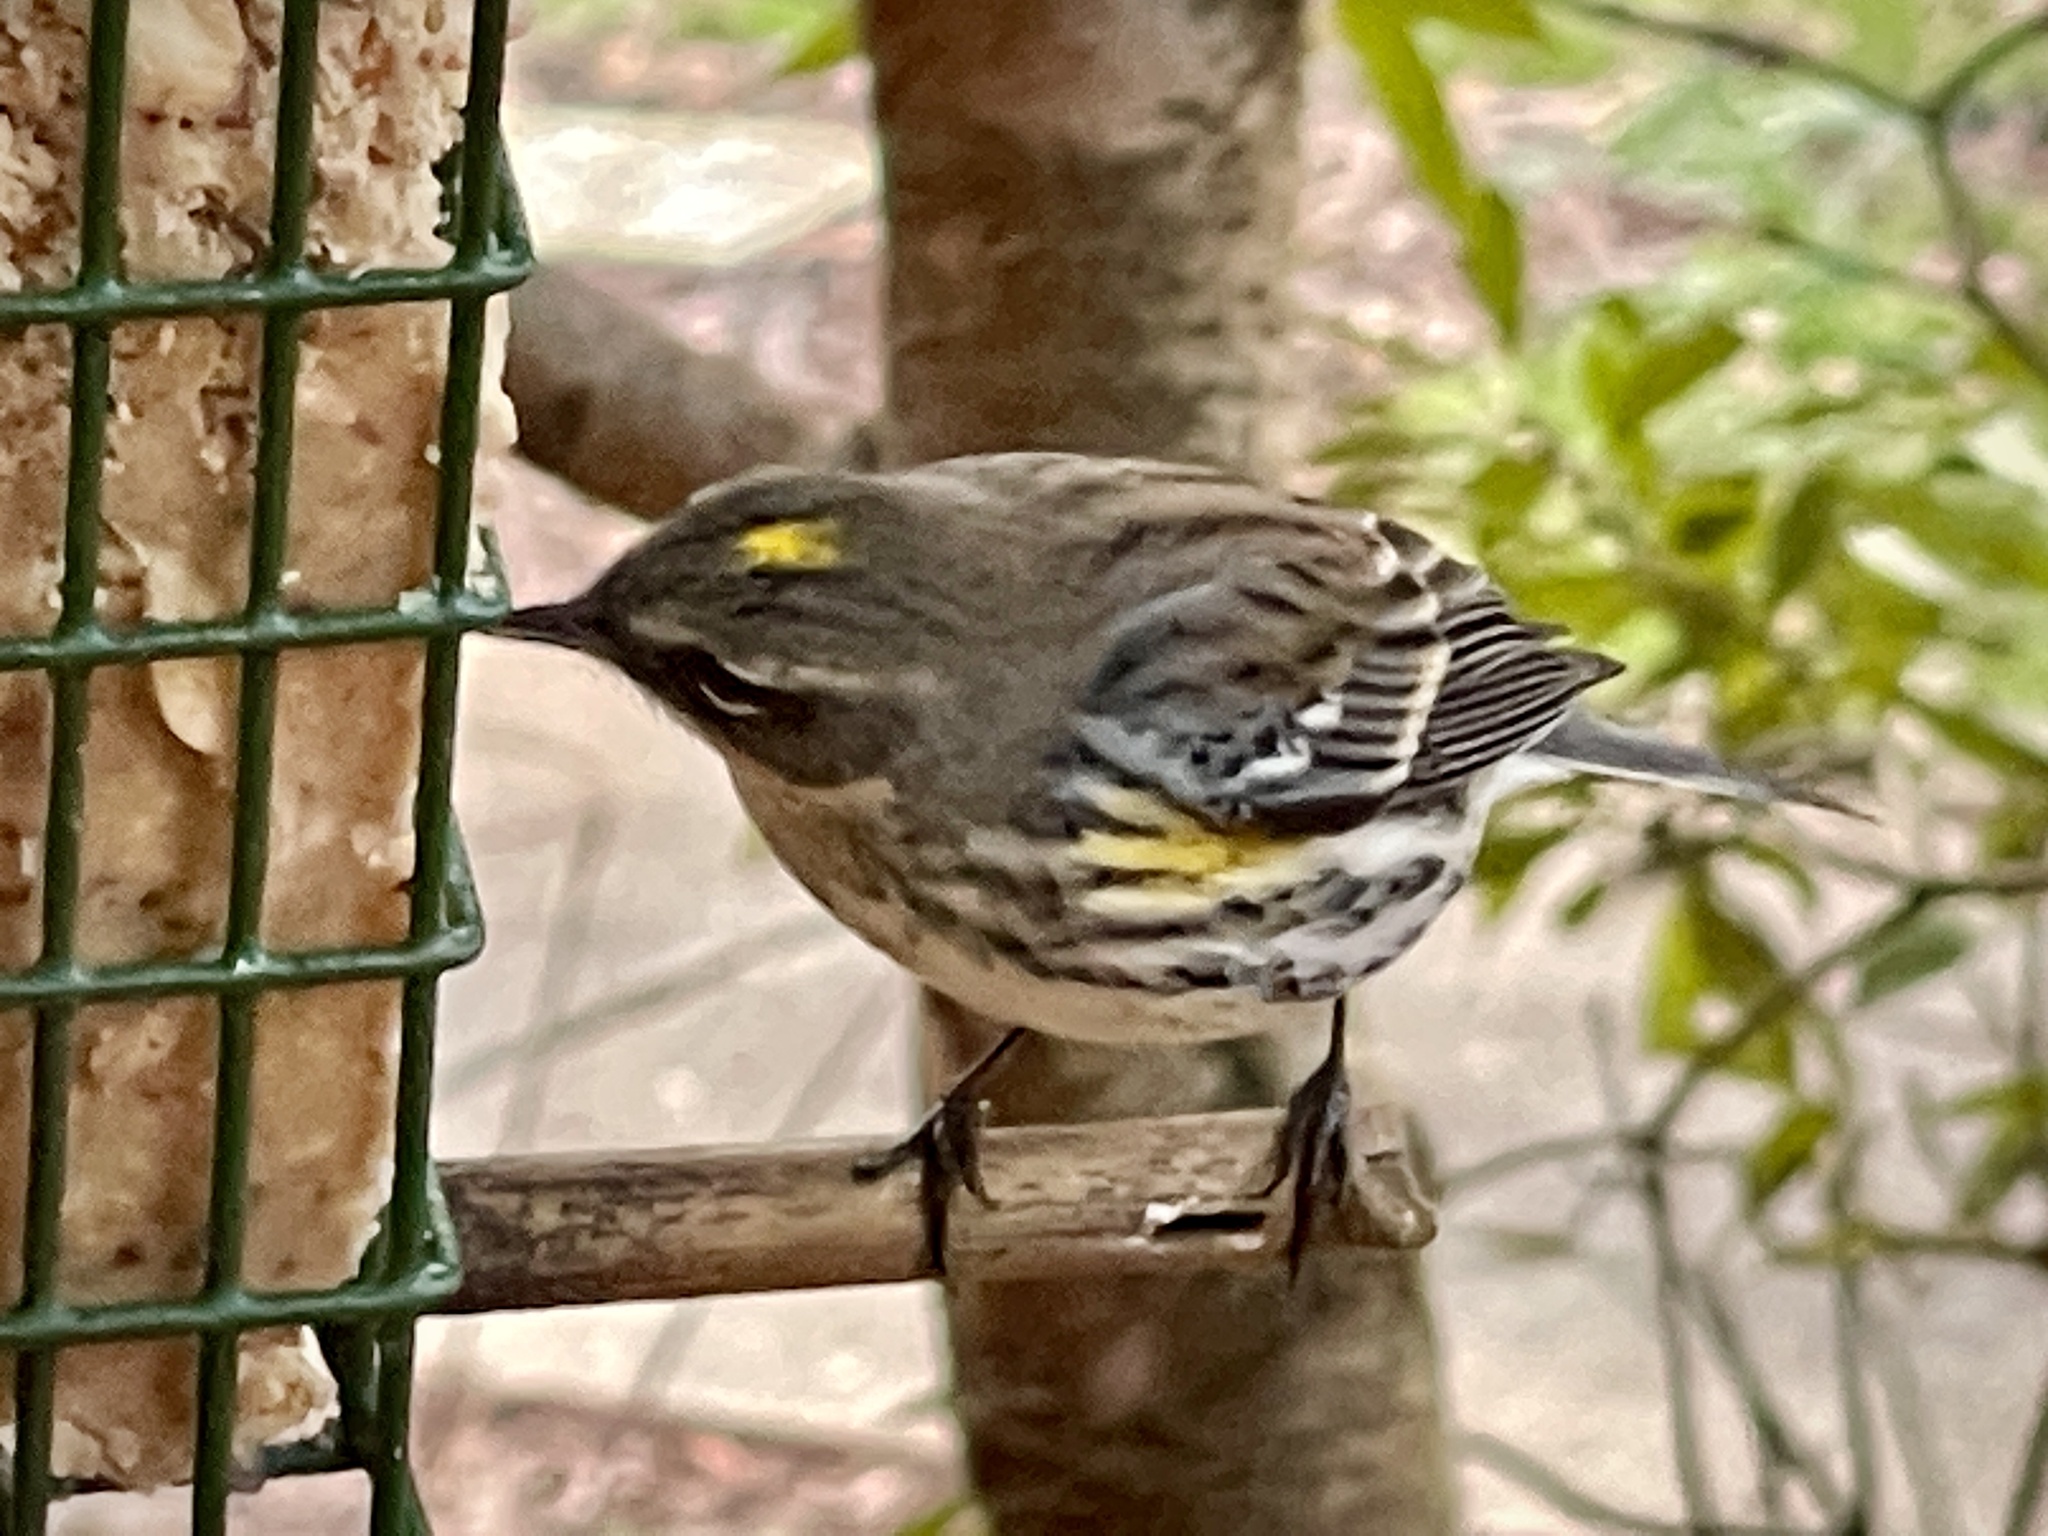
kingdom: Animalia
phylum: Chordata
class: Aves
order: Passeriformes
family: Parulidae
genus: Setophaga
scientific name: Setophaga coronata
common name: Myrtle warbler
